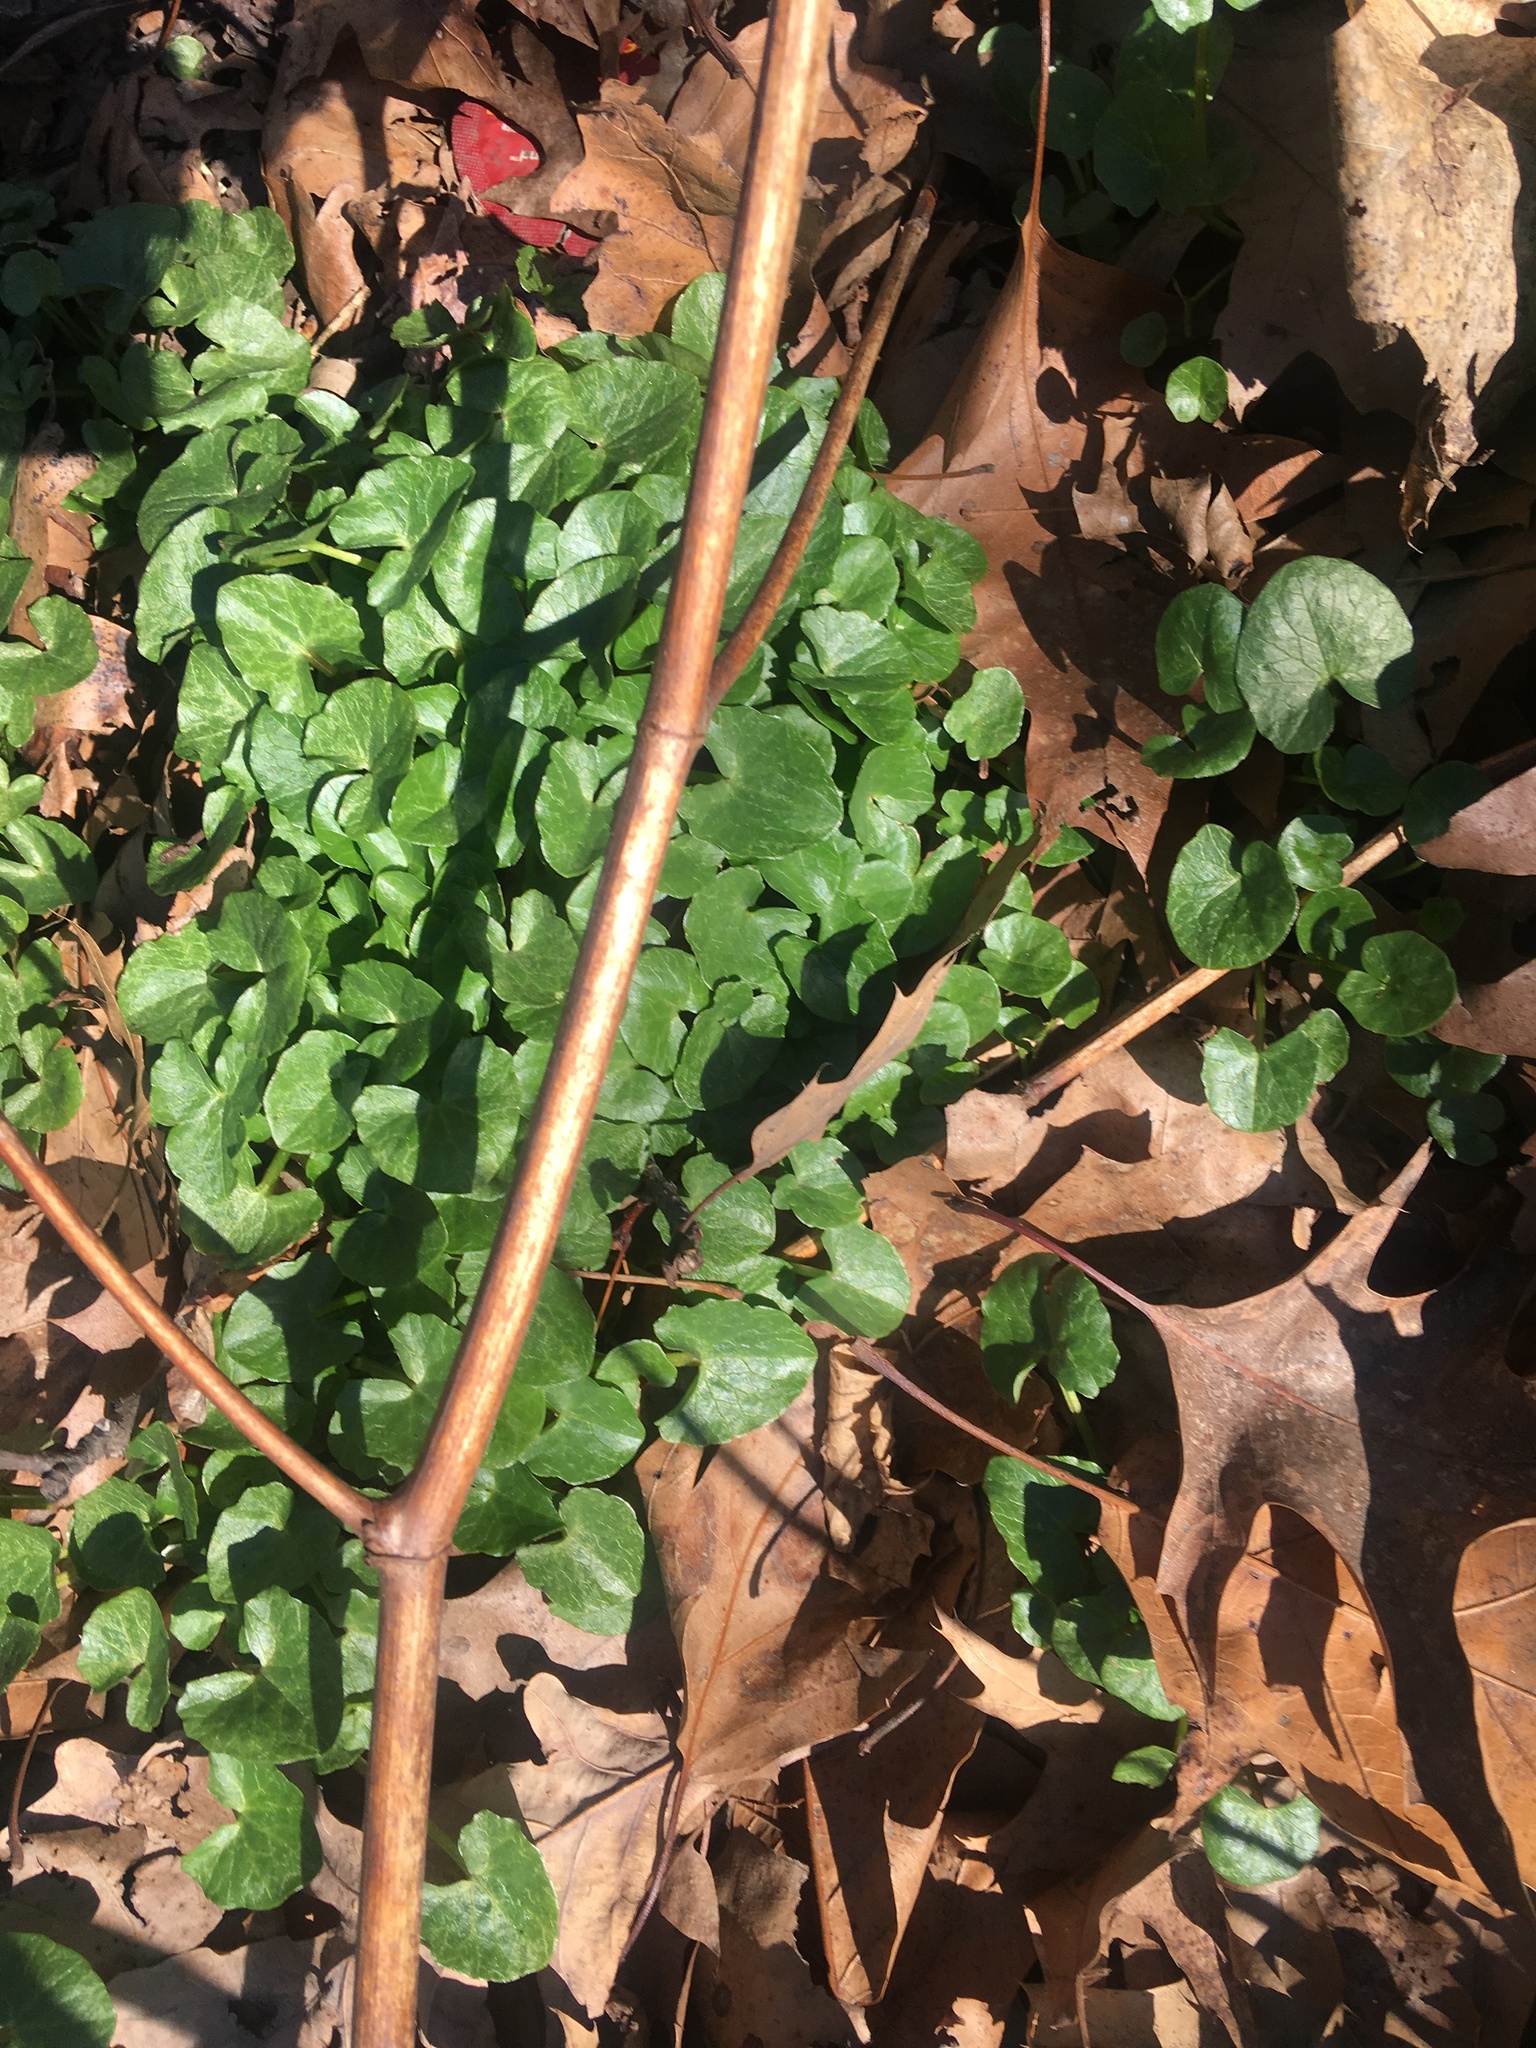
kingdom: Plantae
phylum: Tracheophyta
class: Magnoliopsida
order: Ranunculales
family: Ranunculaceae
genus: Ficaria
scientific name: Ficaria verna
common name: Lesser celandine
